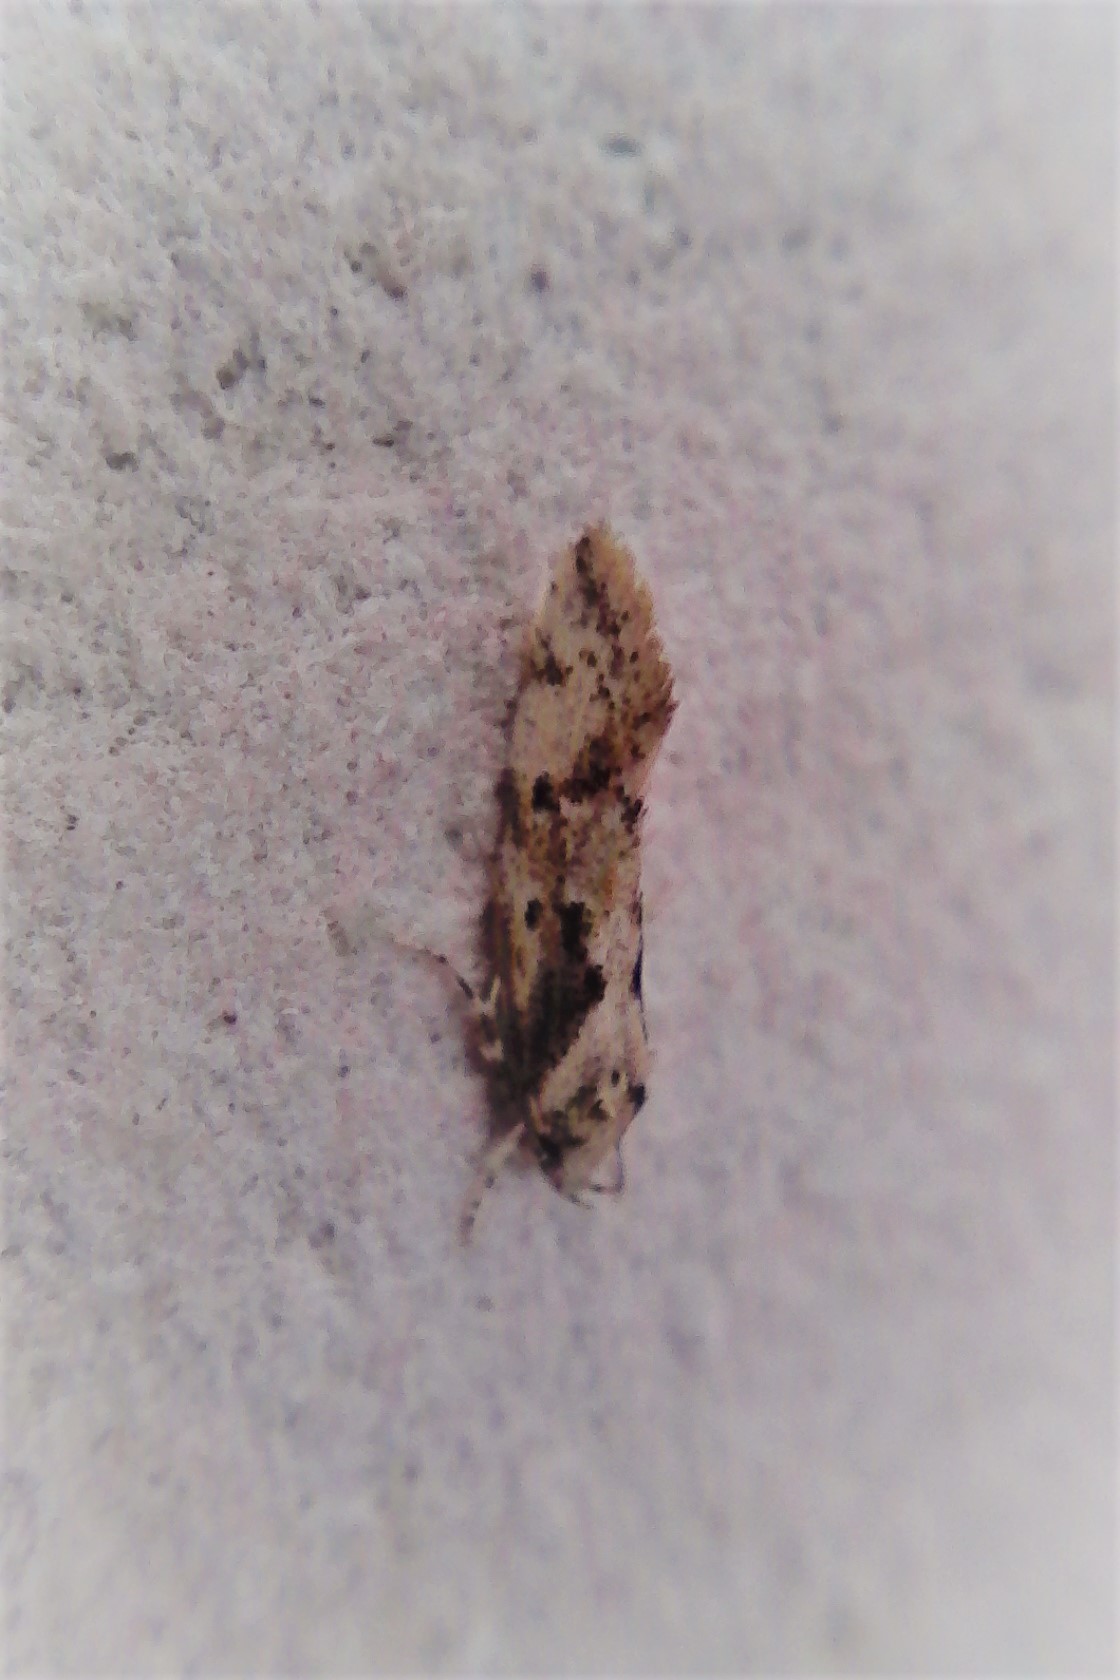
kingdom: Animalia
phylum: Arthropoda
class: Insecta
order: Lepidoptera
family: Oecophoridae
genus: Tingena
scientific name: Tingena ancogramma
